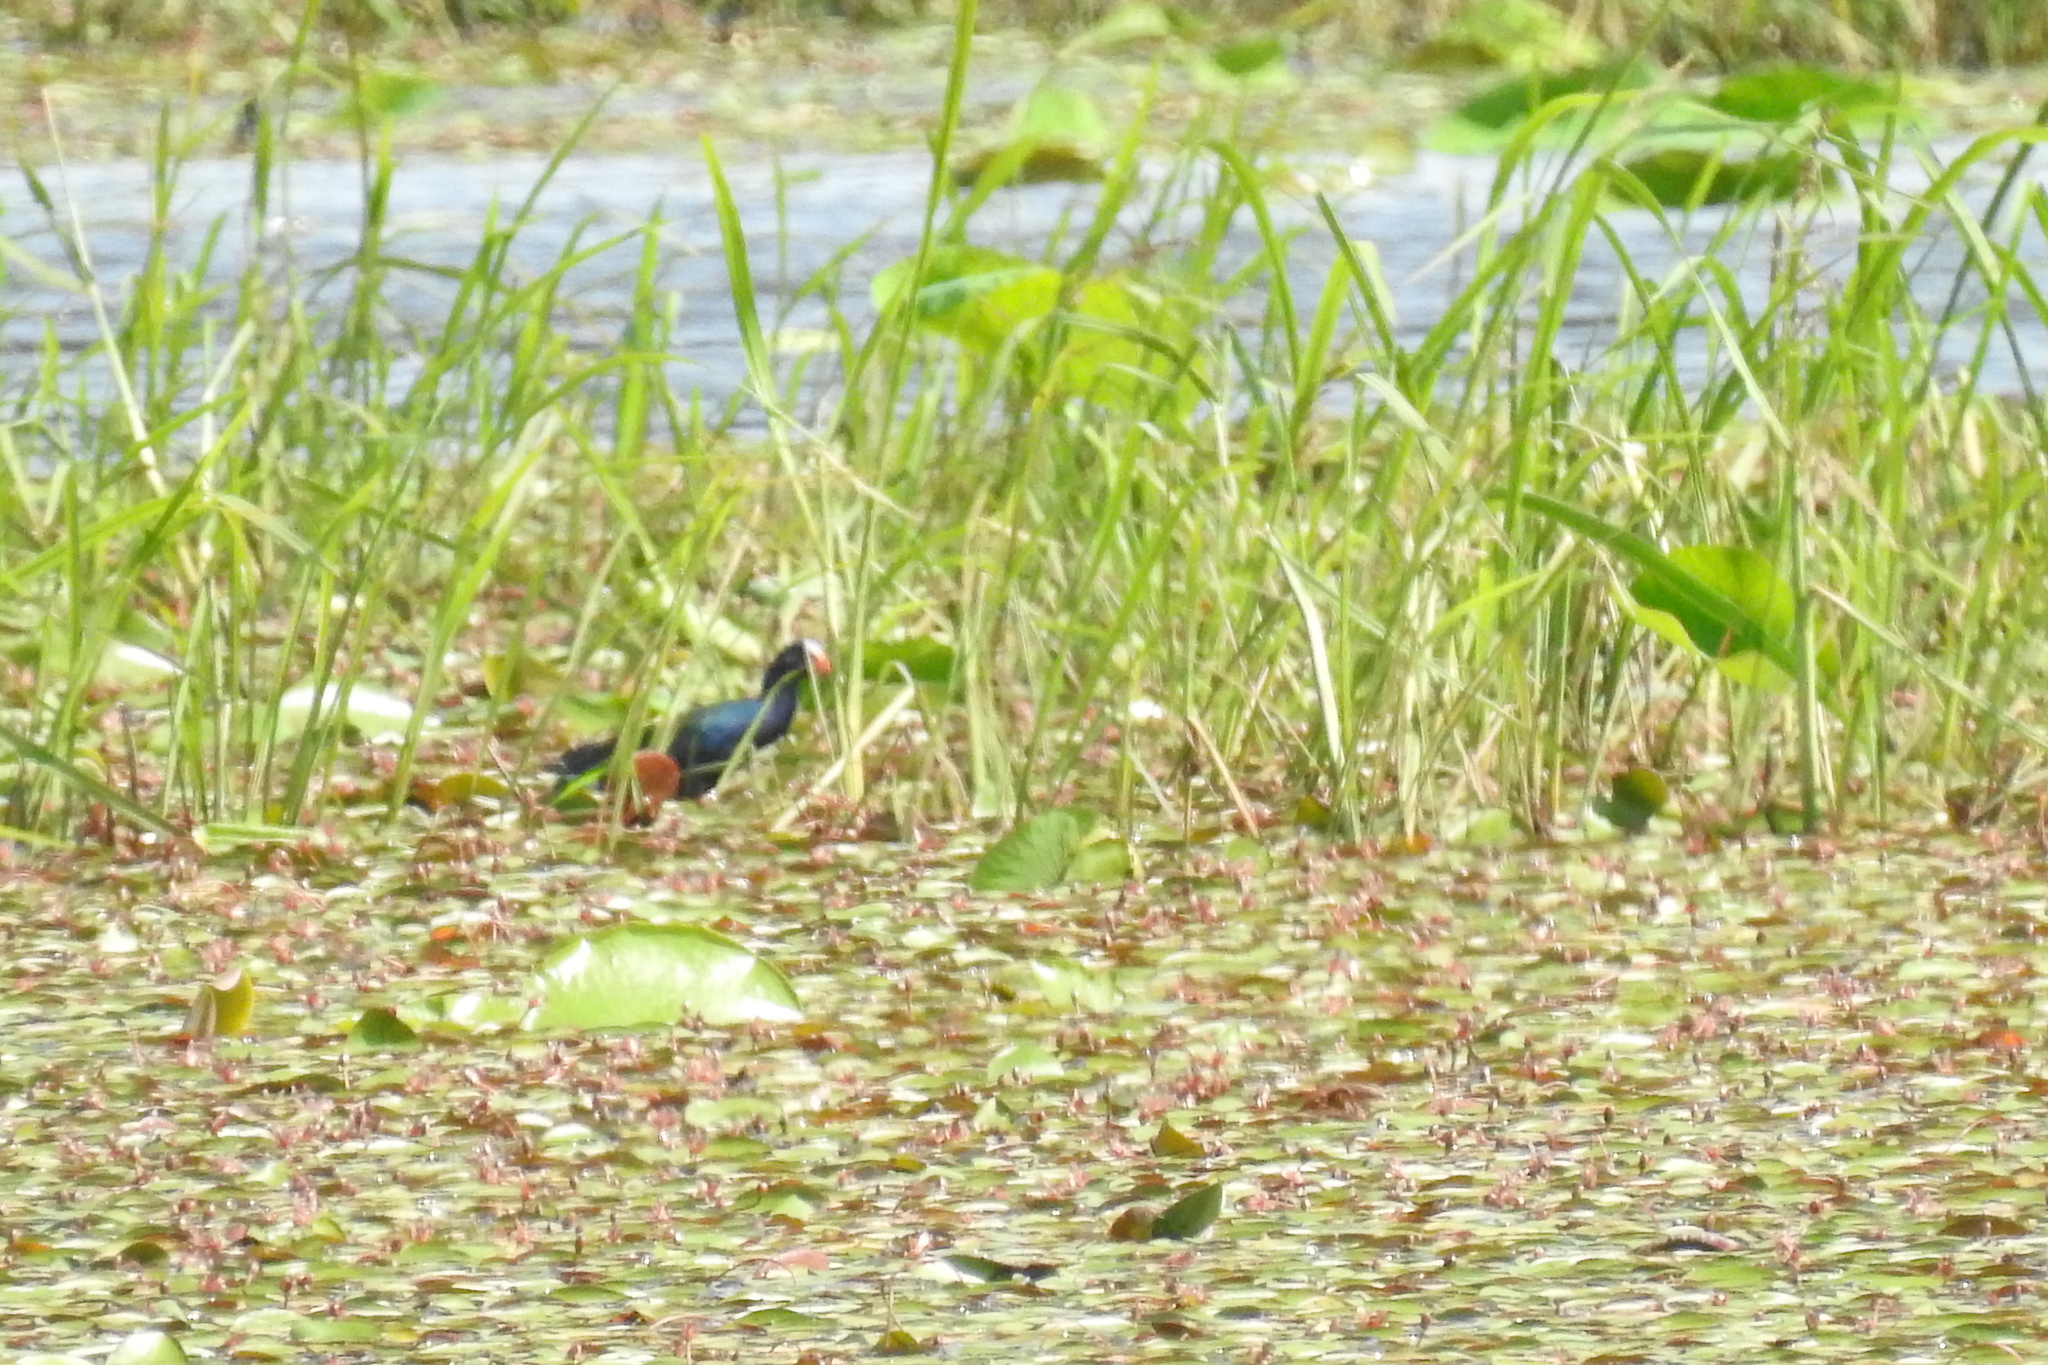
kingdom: Animalia
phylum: Chordata
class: Aves
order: Gruiformes
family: Rallidae
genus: Porphyrio
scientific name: Porphyrio martinica
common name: Purple gallinule
